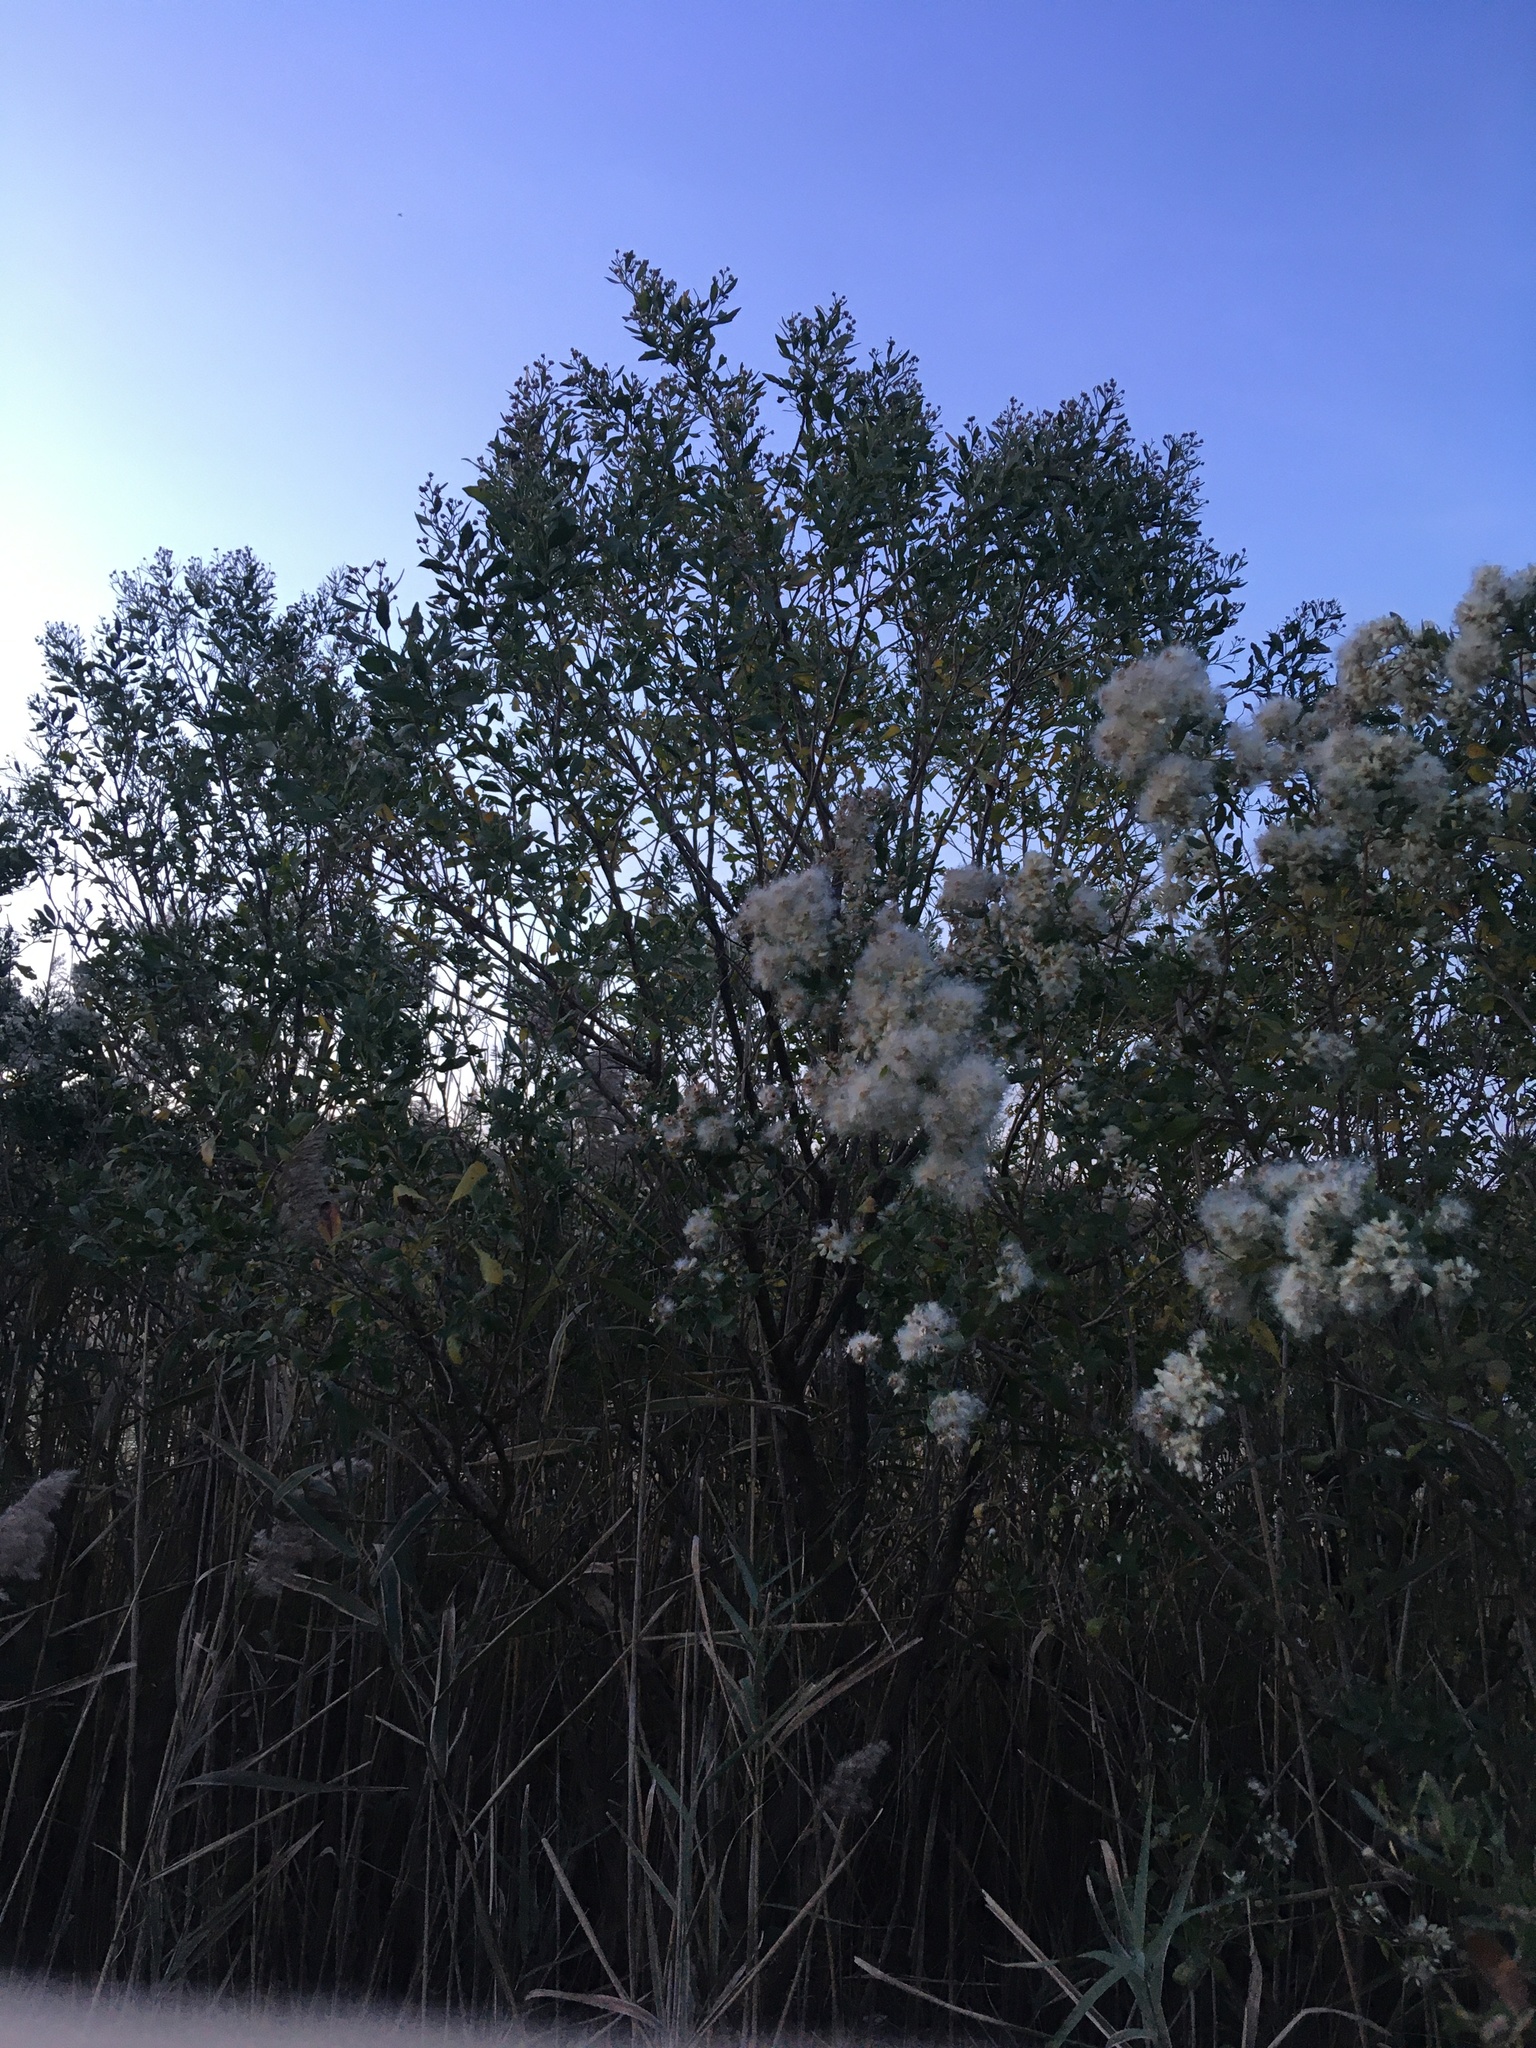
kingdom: Plantae
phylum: Tracheophyta
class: Magnoliopsida
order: Asterales
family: Asteraceae
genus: Baccharis
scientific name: Baccharis halimifolia
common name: Eastern baccharis
